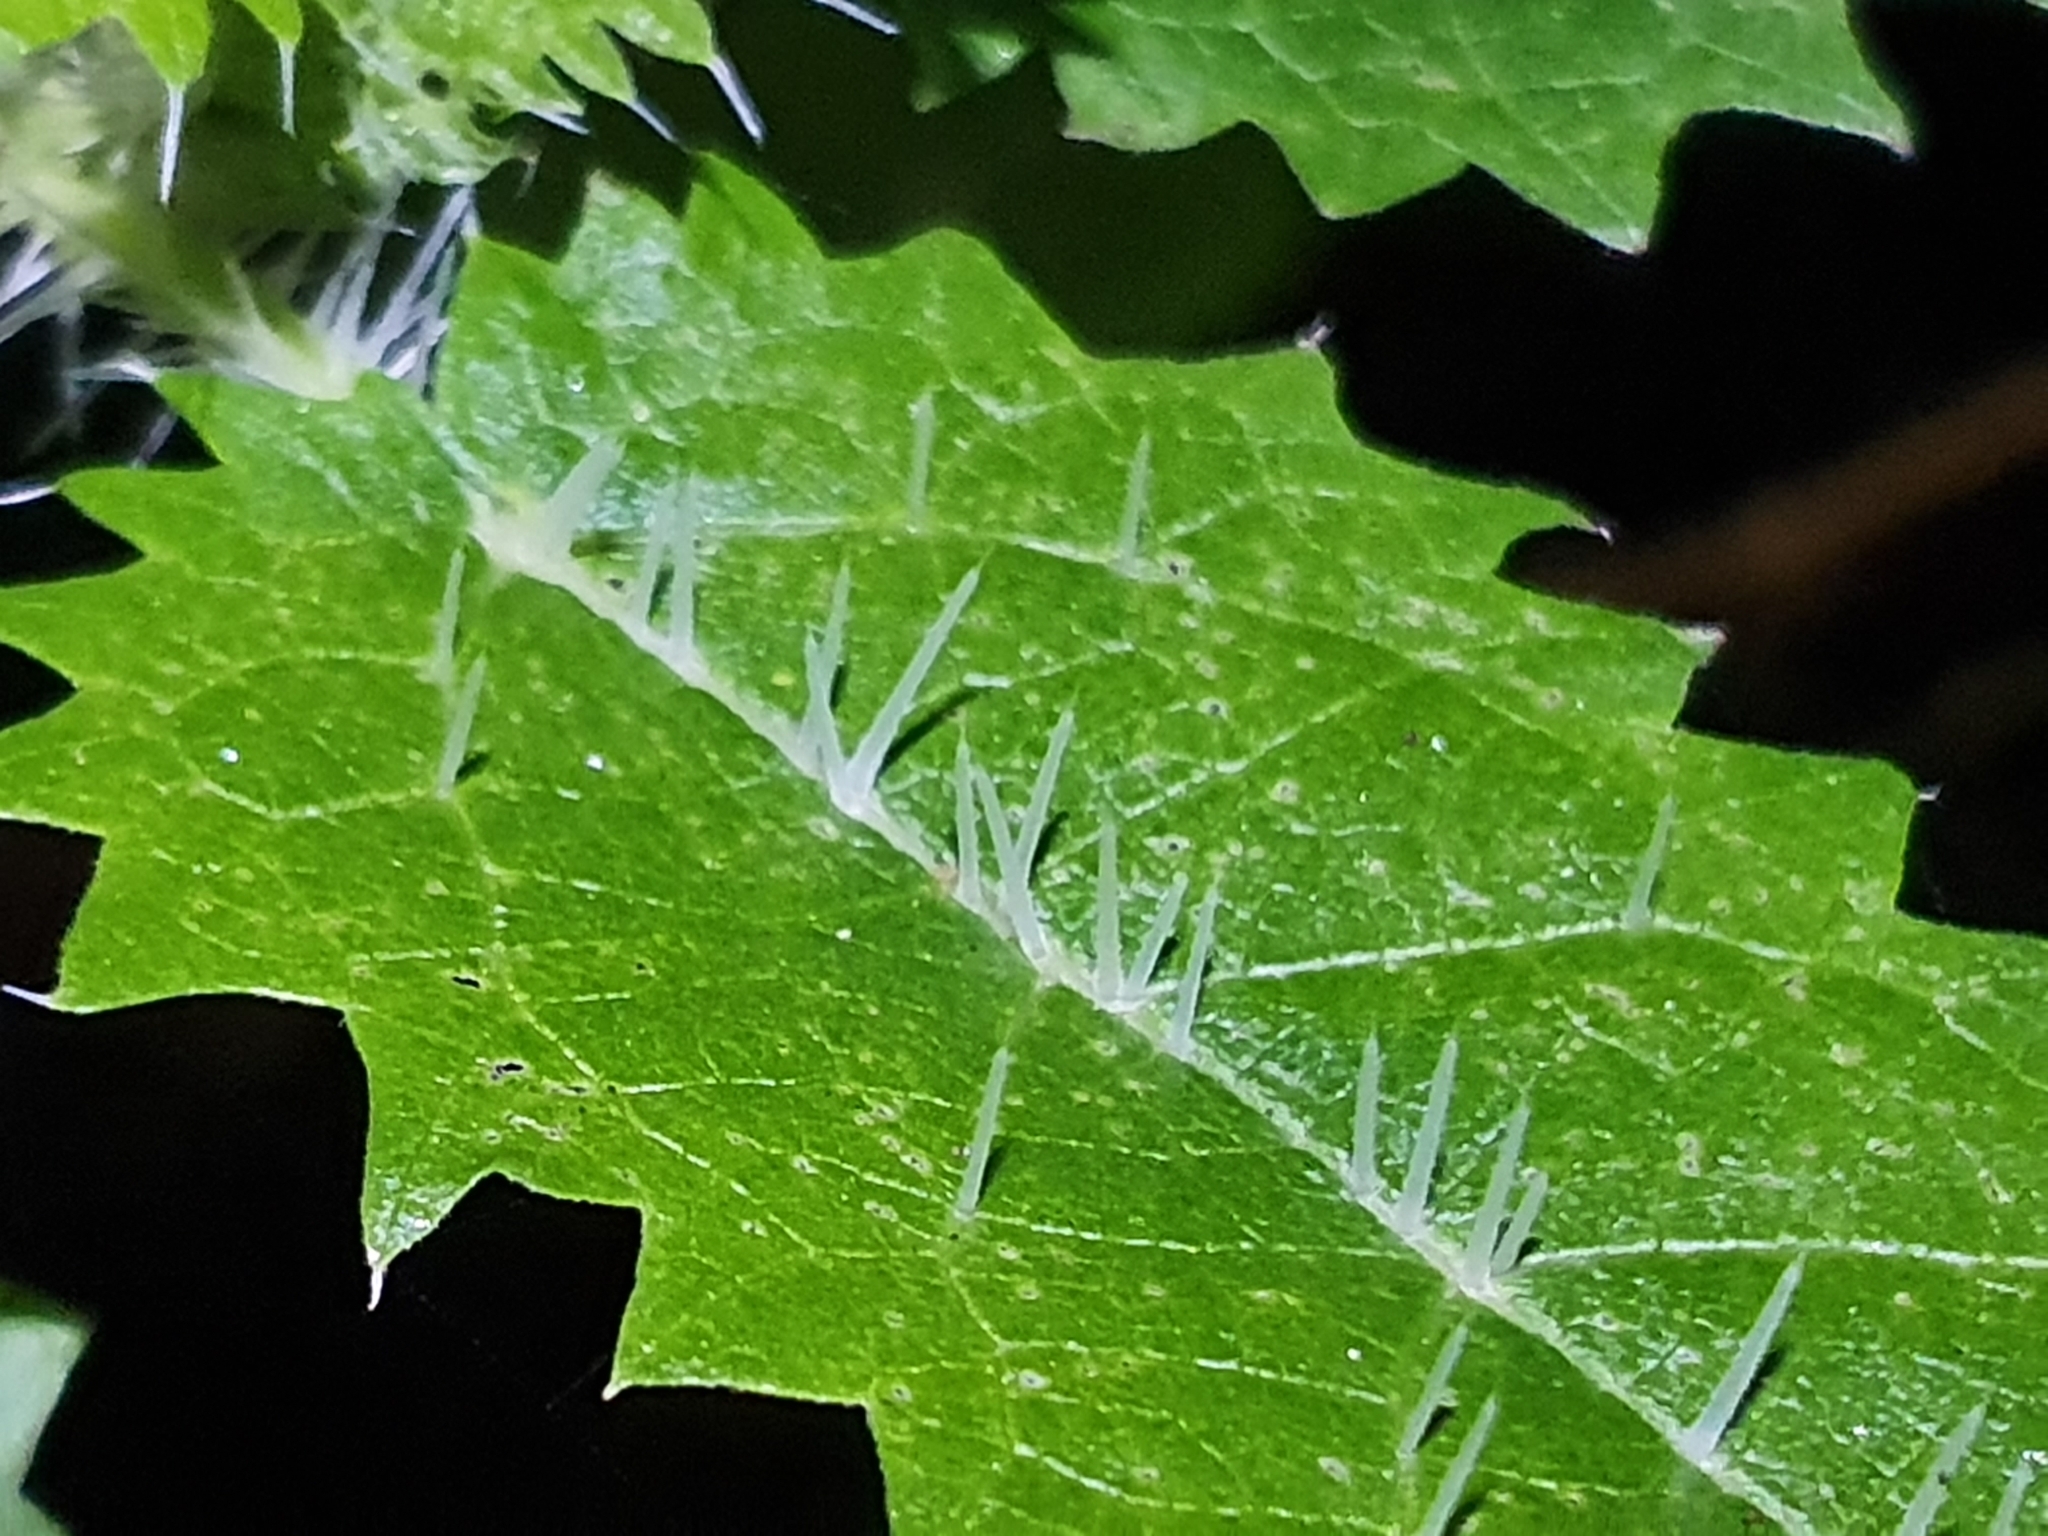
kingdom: Plantae
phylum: Tracheophyta
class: Magnoliopsida
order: Rosales
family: Urticaceae
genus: Urtica
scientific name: Urtica ferox
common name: Tree nettle
